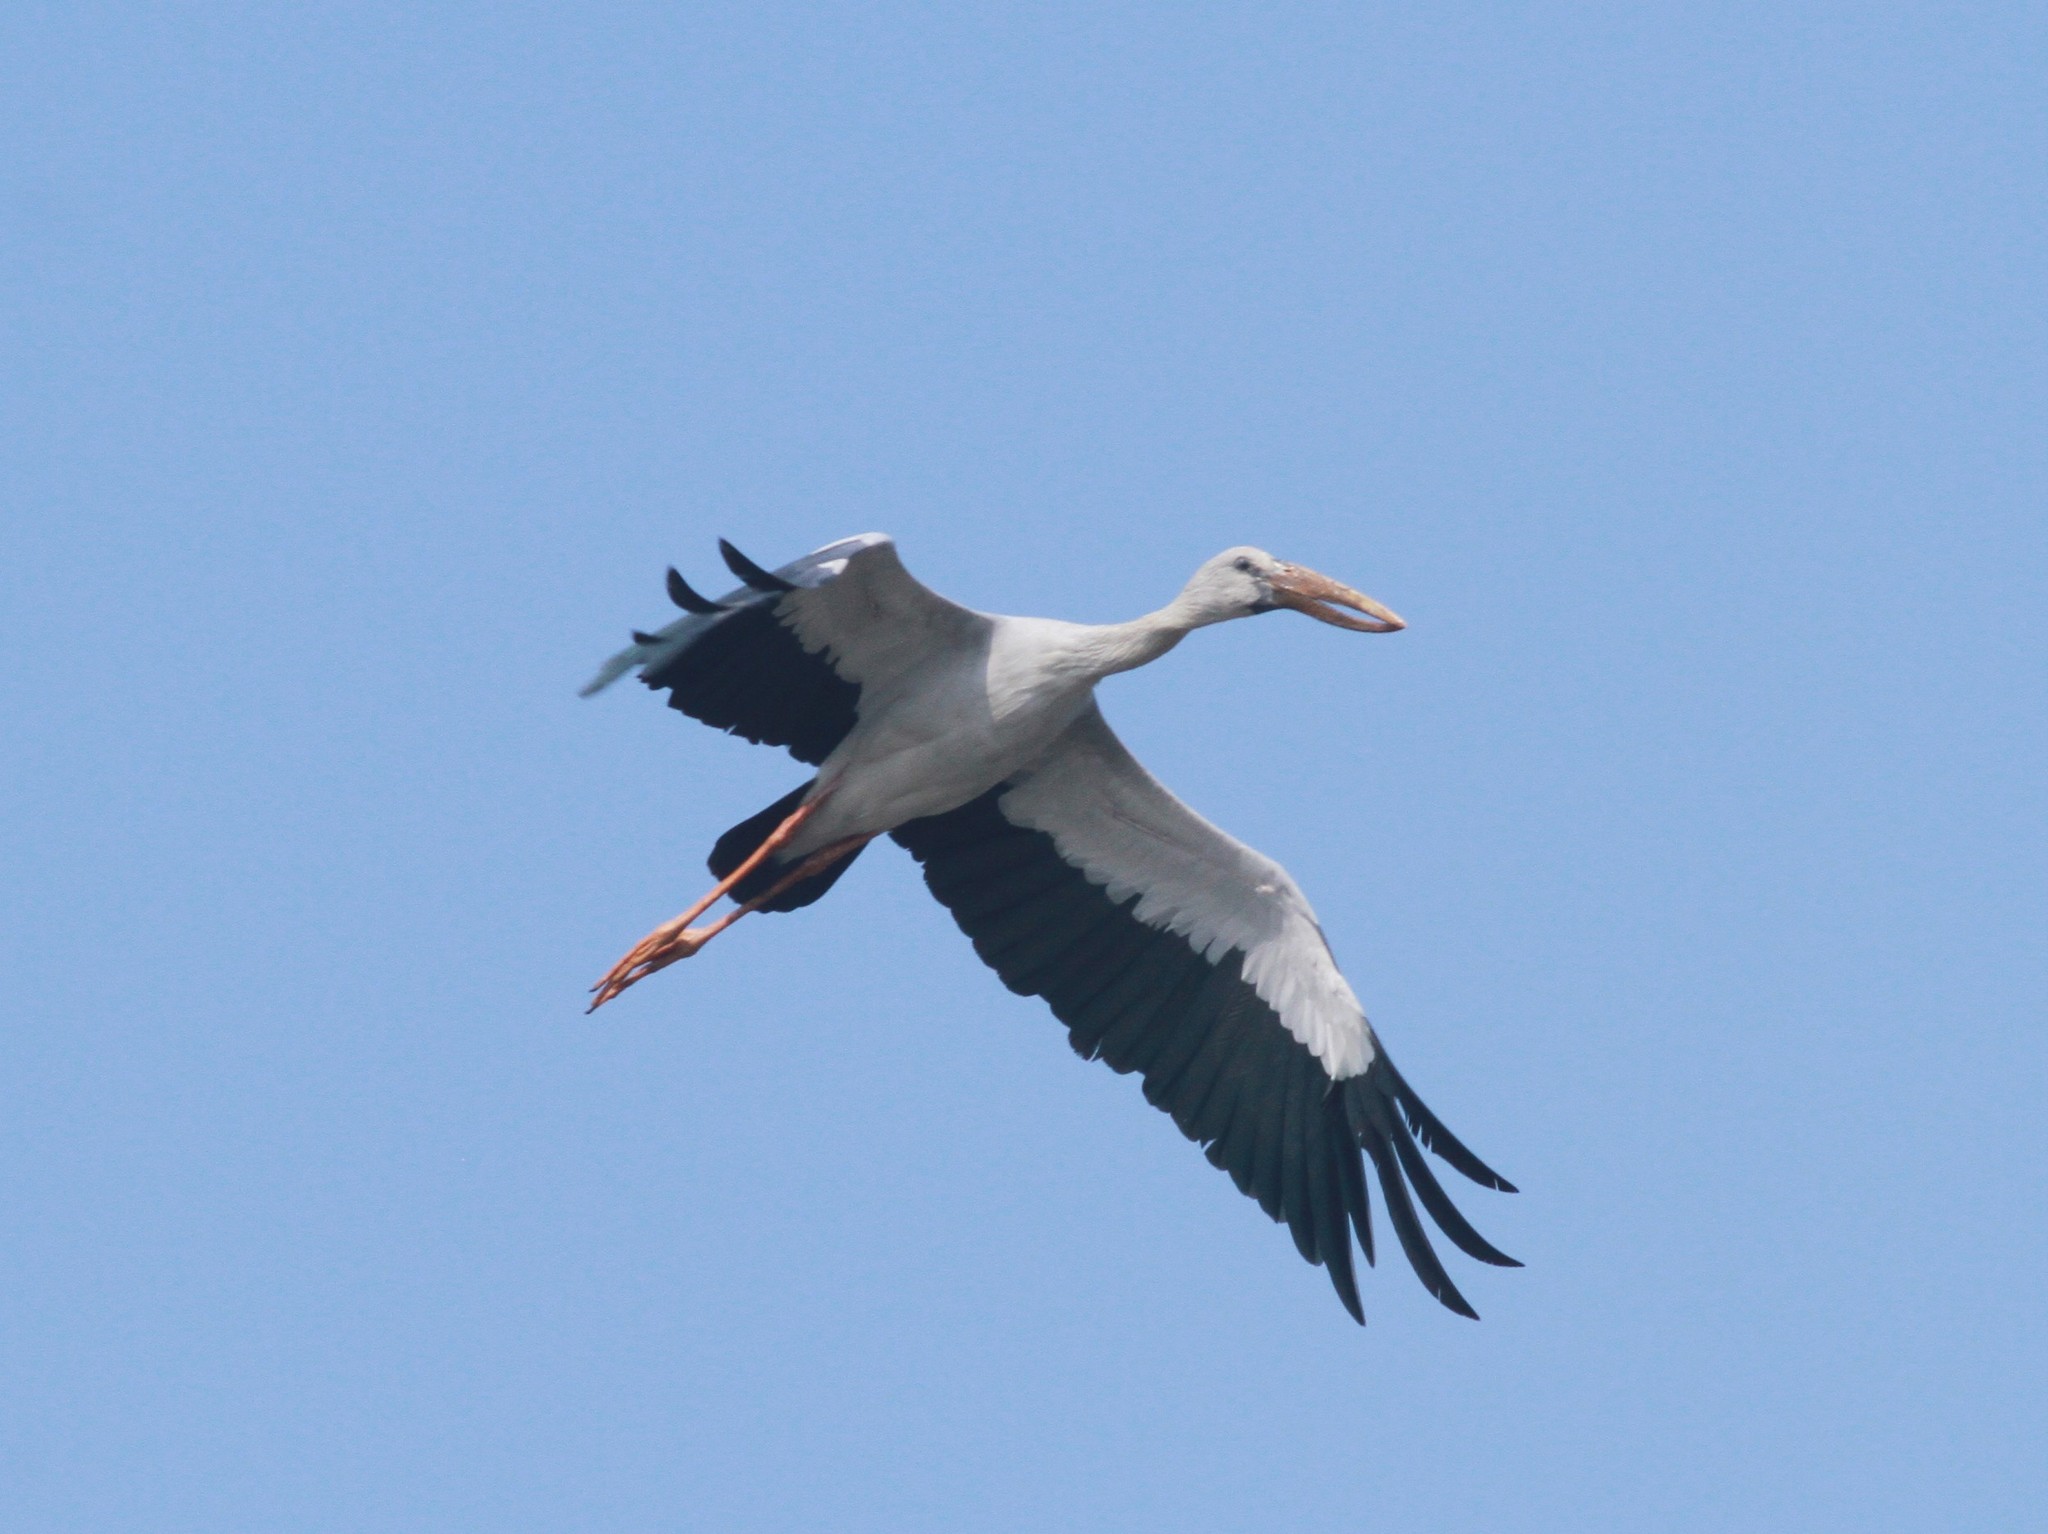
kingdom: Animalia
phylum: Chordata
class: Aves
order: Ciconiiformes
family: Ciconiidae
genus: Anastomus
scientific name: Anastomus oscitans
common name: Asian openbill
